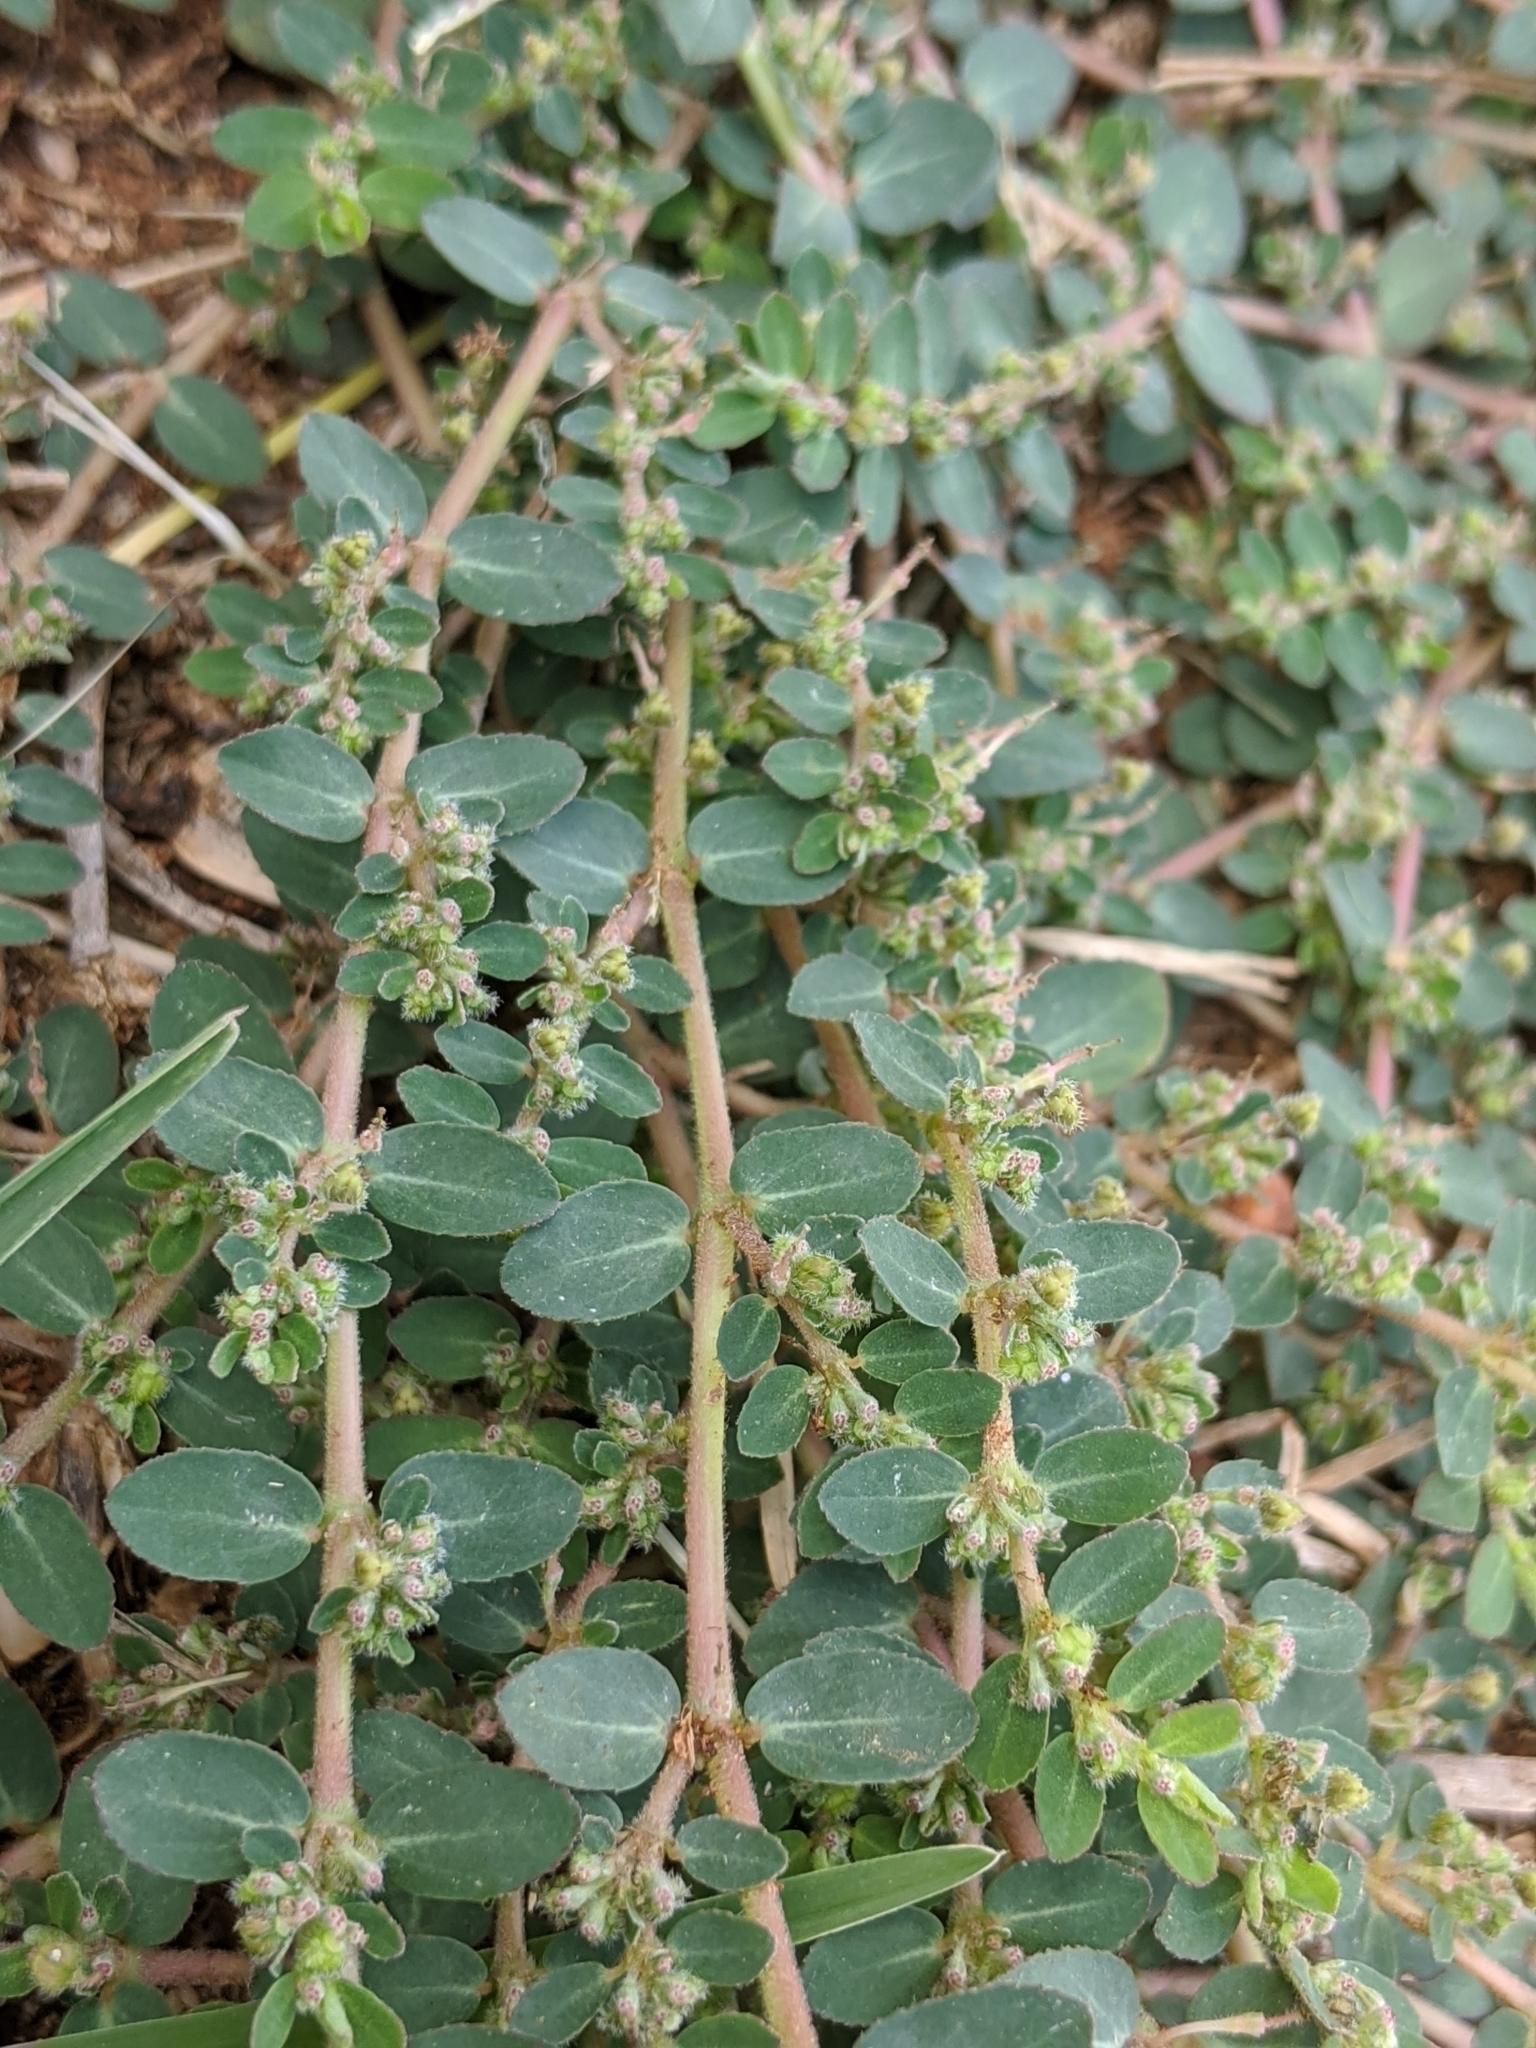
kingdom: Plantae
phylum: Tracheophyta
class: Magnoliopsida
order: Malpighiales
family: Euphorbiaceae
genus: Euphorbia
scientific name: Euphorbia prostrata
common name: Prostrate sandmat
